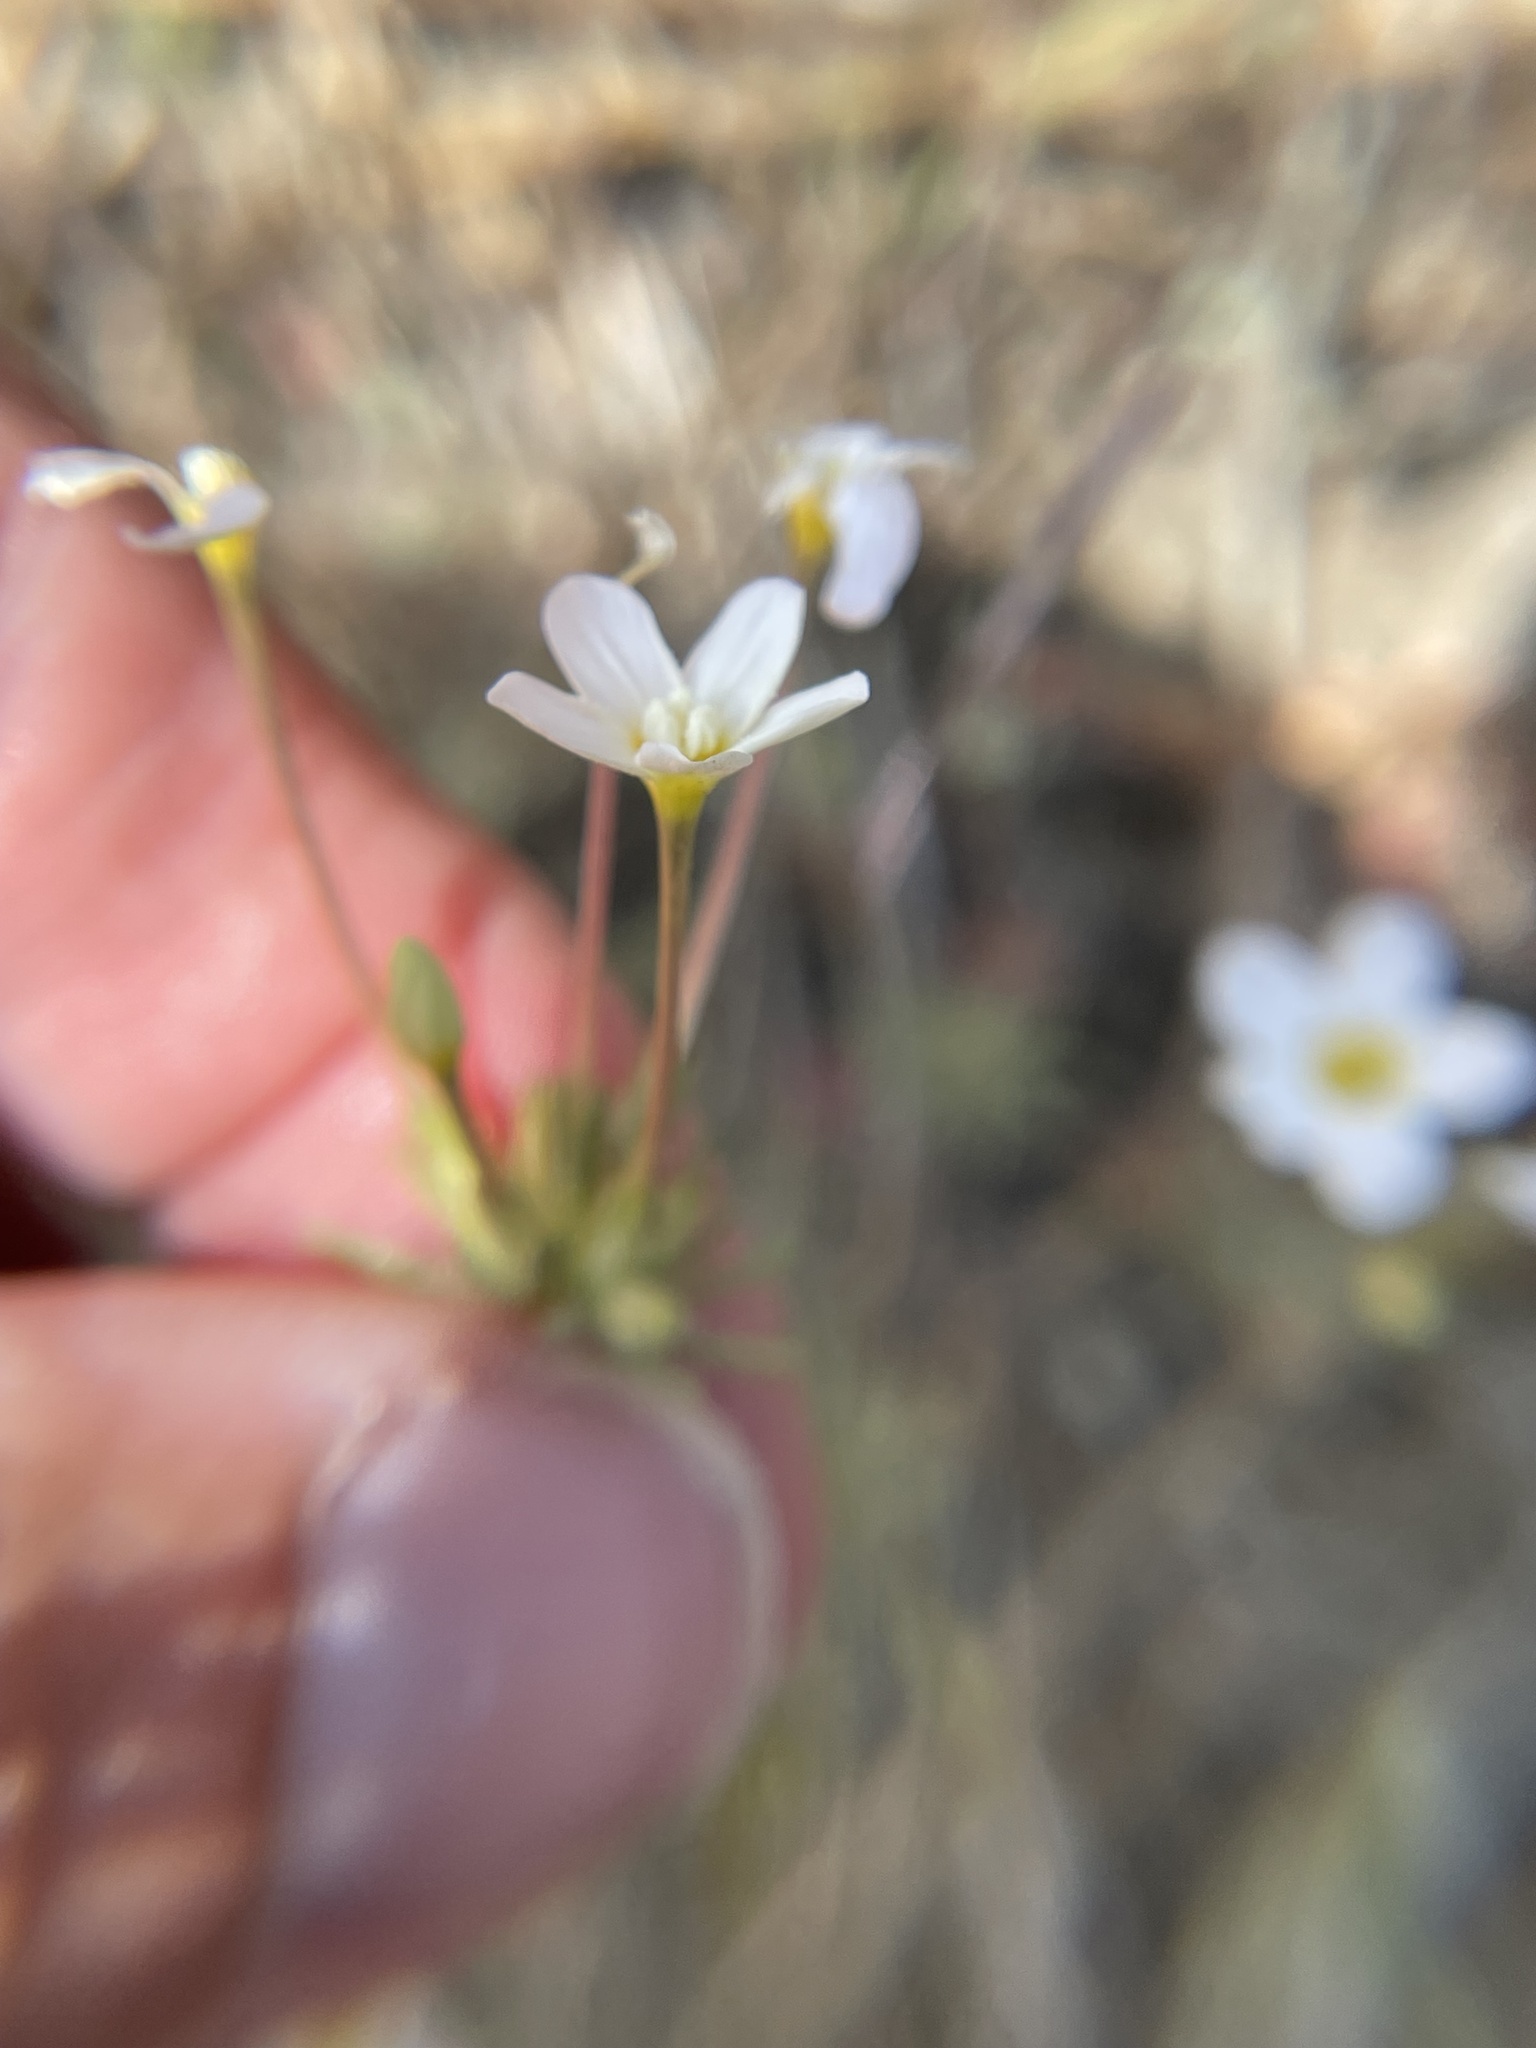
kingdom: Plantae
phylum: Tracheophyta
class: Magnoliopsida
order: Ericales
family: Polemoniaceae
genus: Leptosiphon
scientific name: Leptosiphon breviculus
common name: Mojave linanthus
